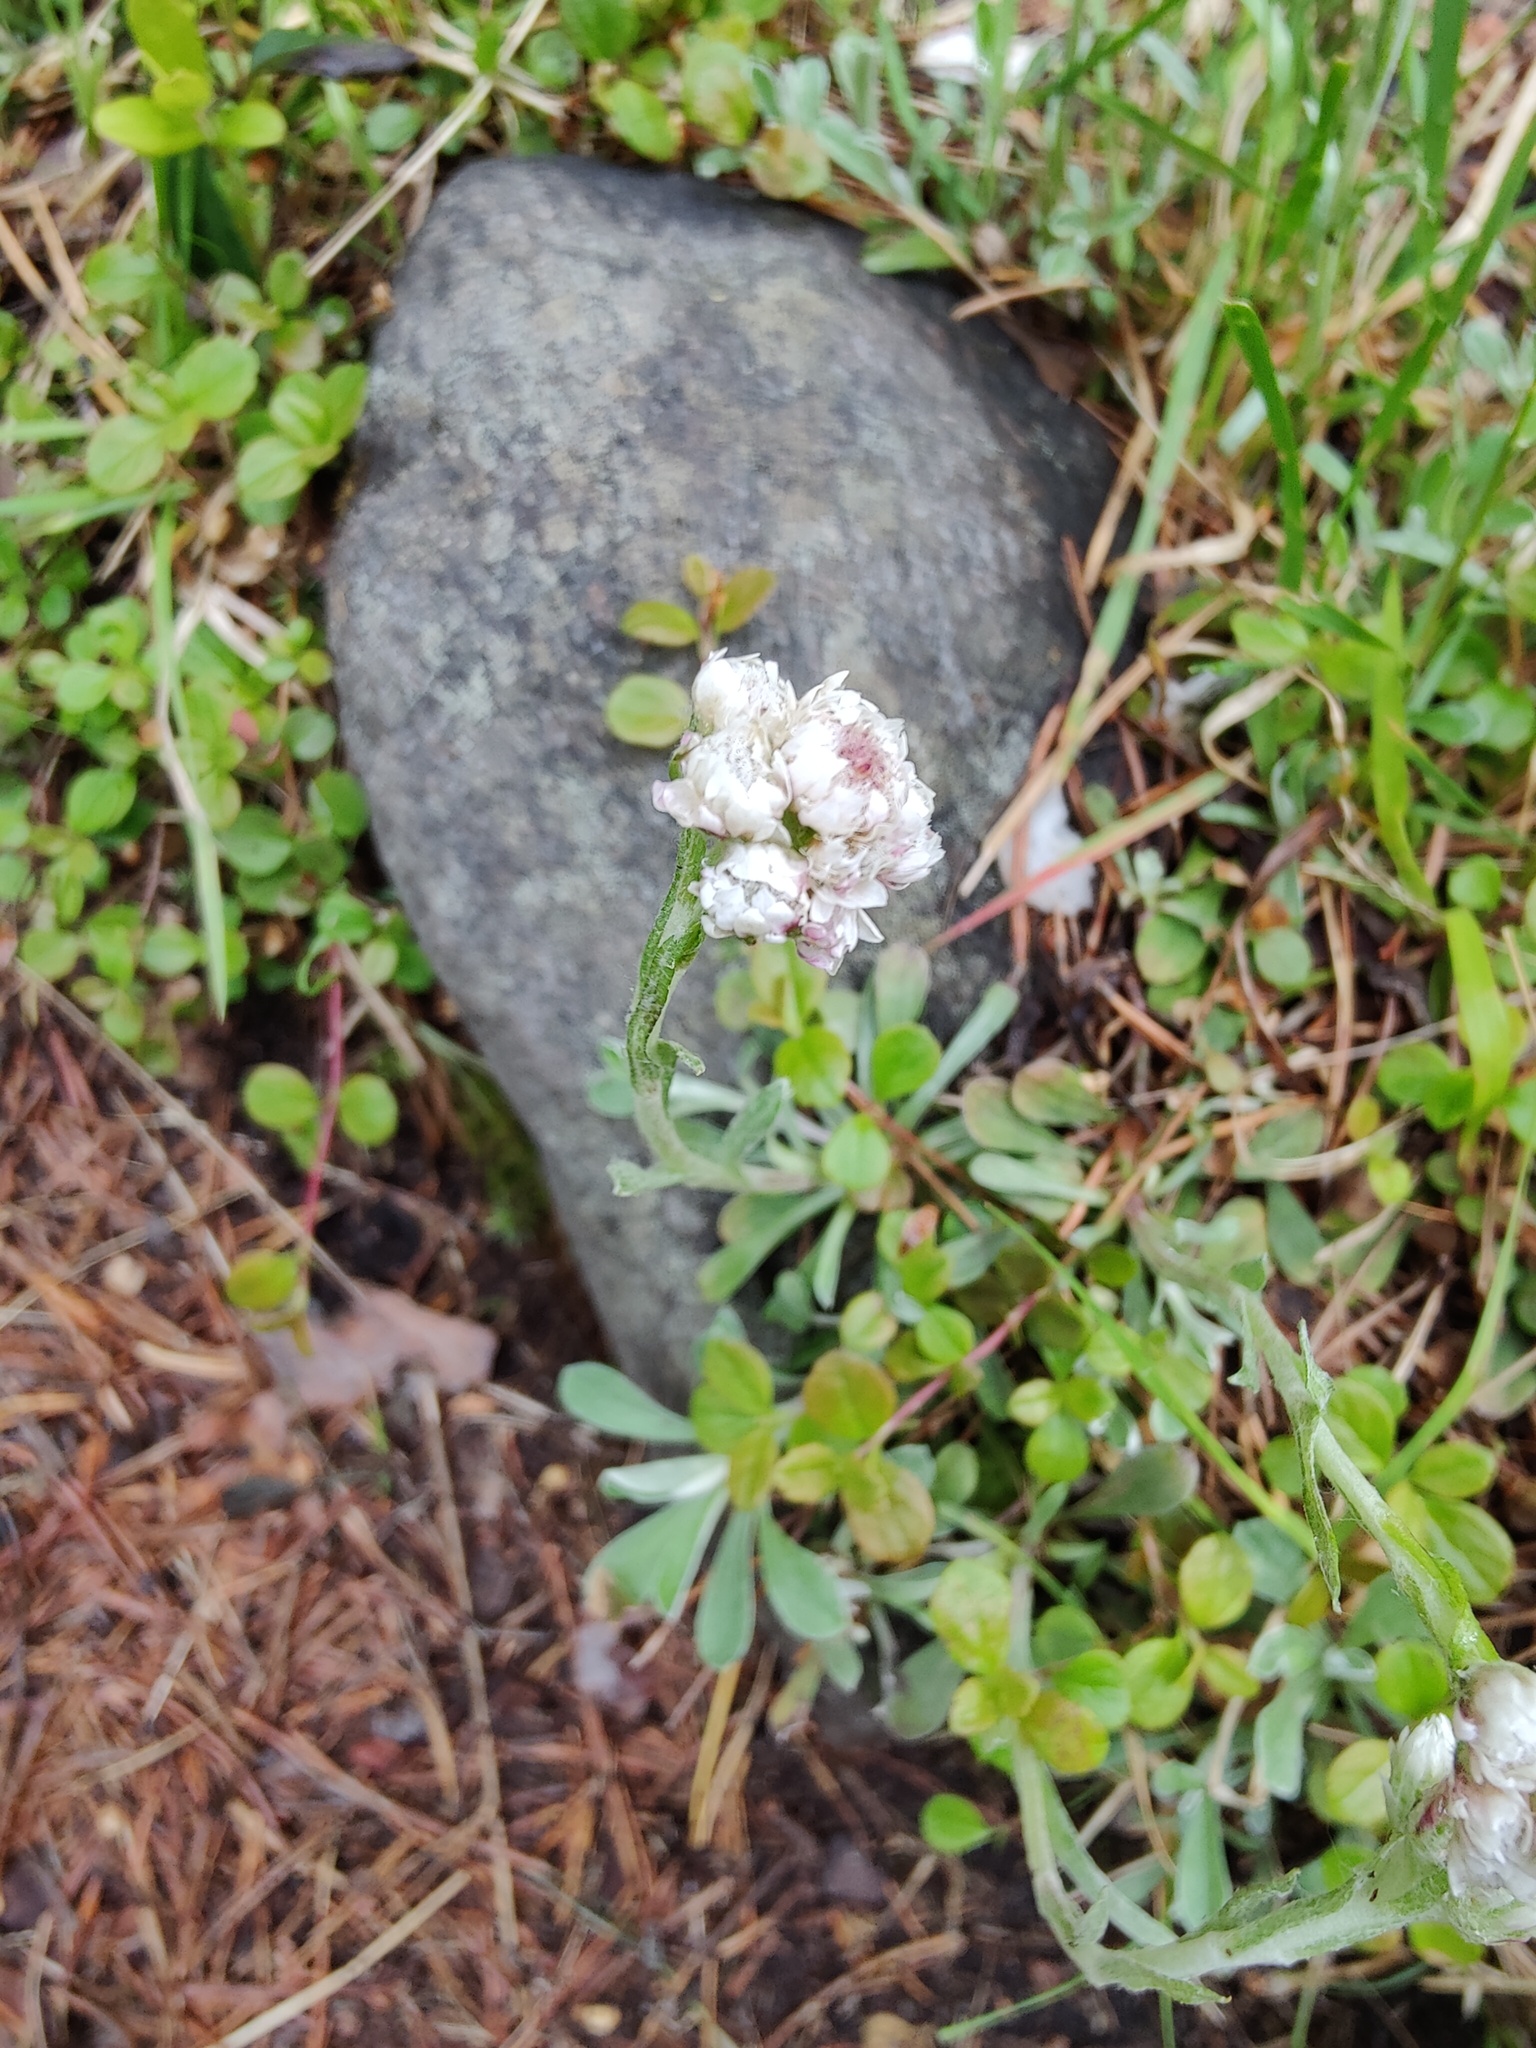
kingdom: Plantae
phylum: Tracheophyta
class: Magnoliopsida
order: Asterales
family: Asteraceae
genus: Antennaria
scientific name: Antennaria dioica
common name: Mountain everlasting
